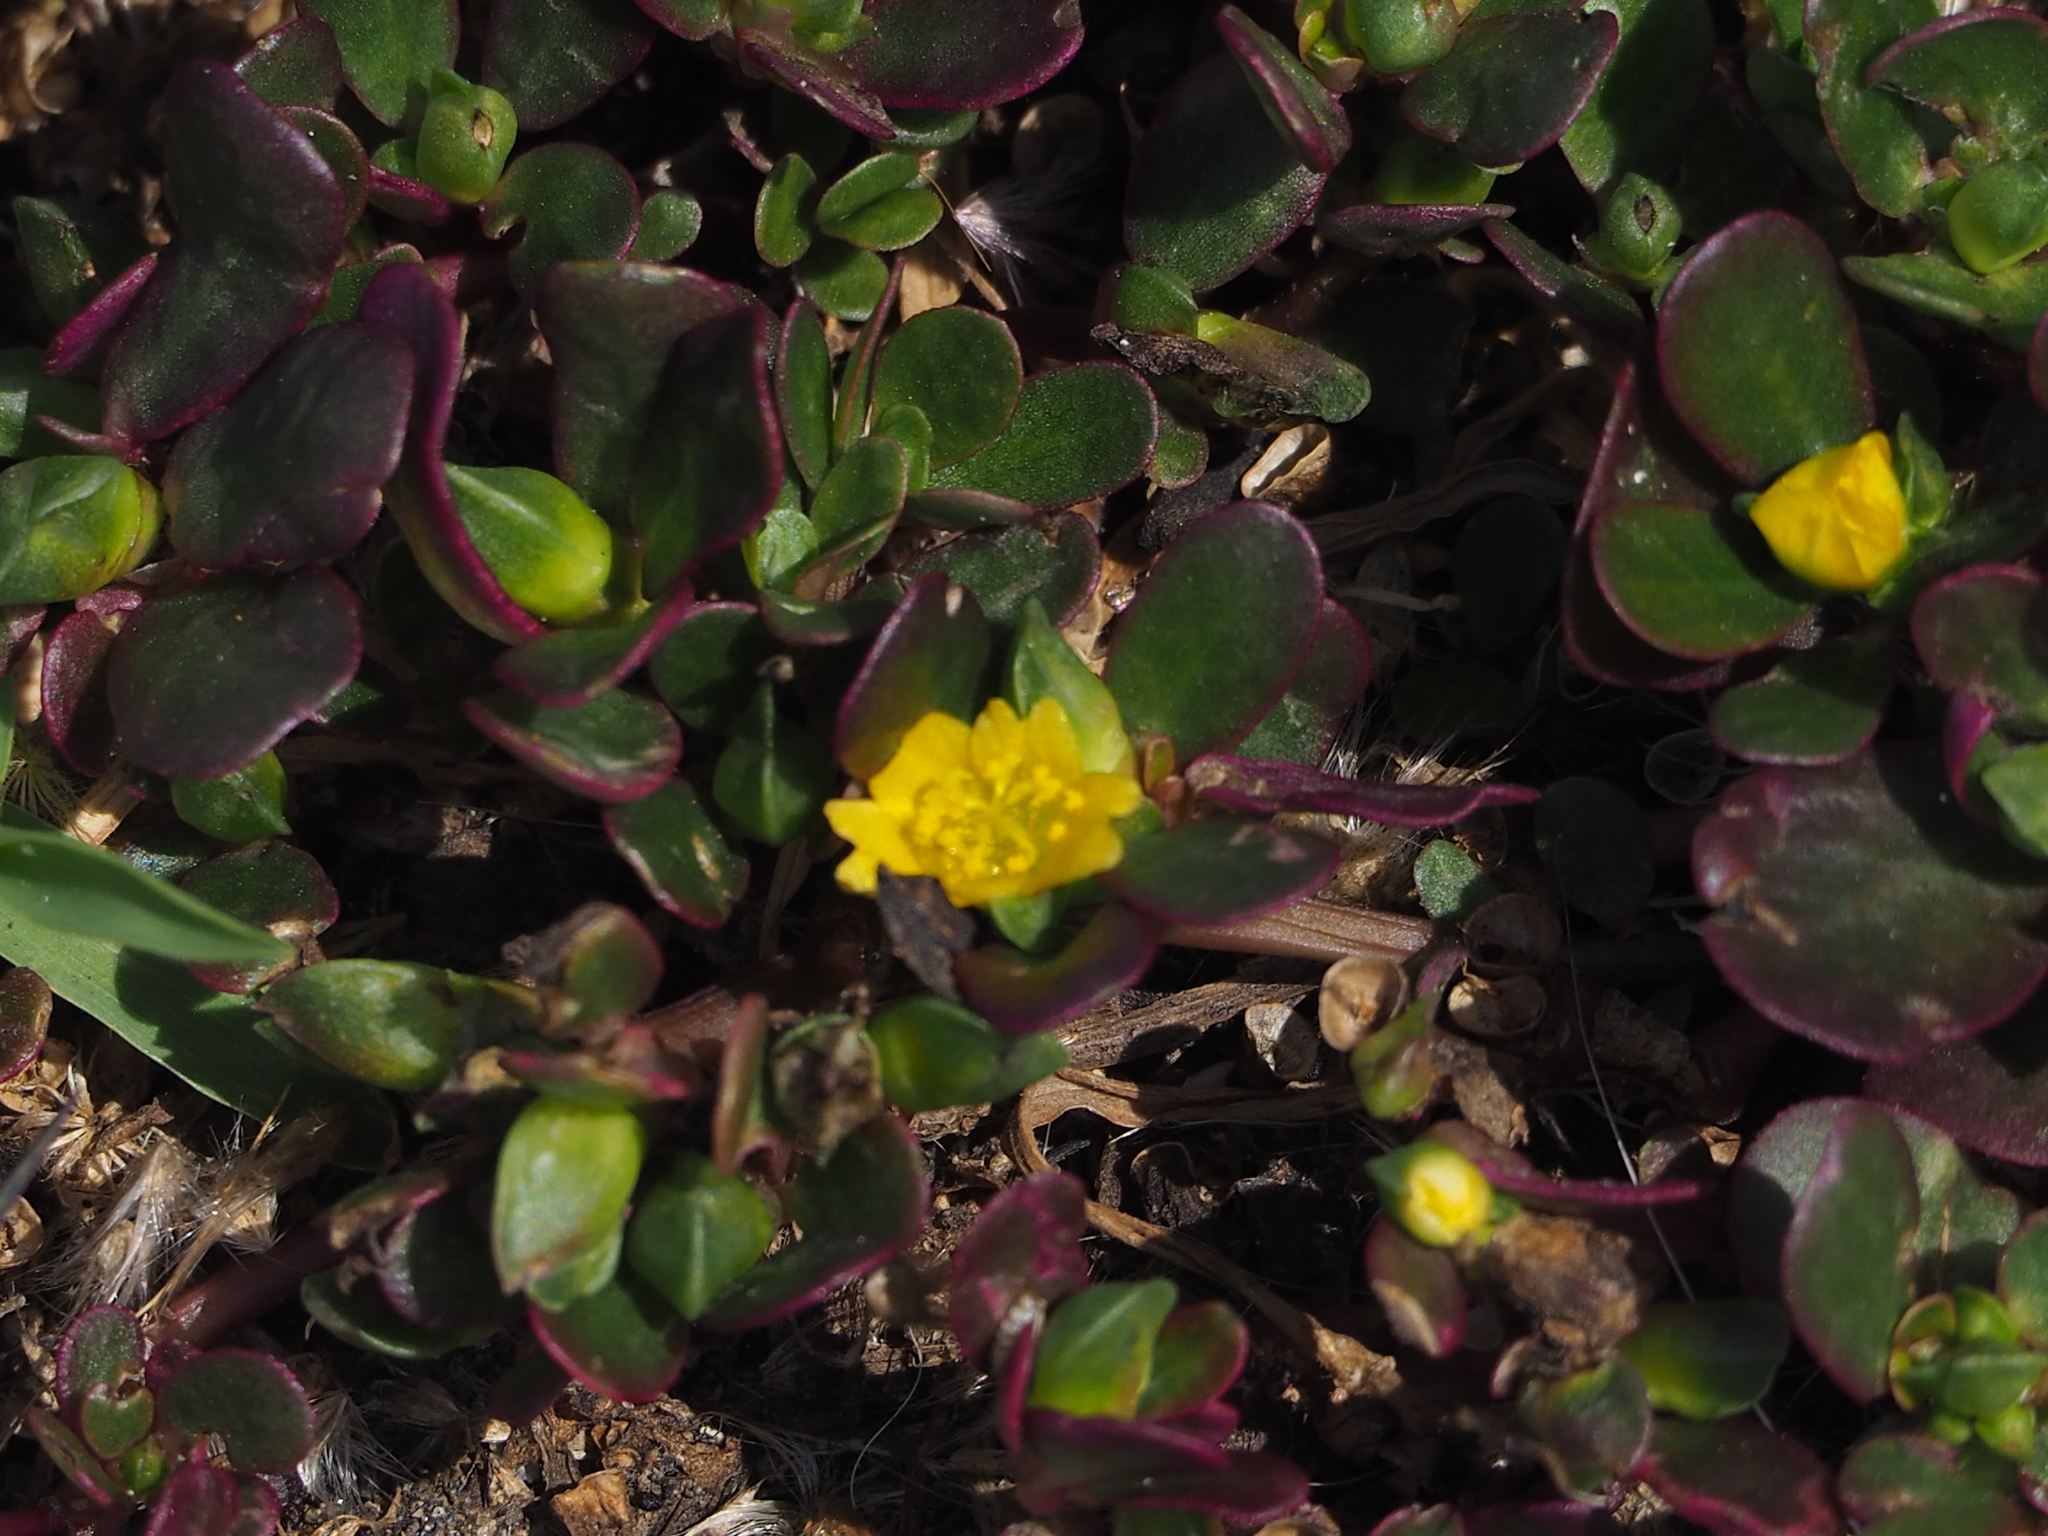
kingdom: Plantae
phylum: Tracheophyta
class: Magnoliopsida
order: Caryophyllales
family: Portulacaceae
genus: Portulaca
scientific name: Portulaca oleracea
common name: Common purslane
